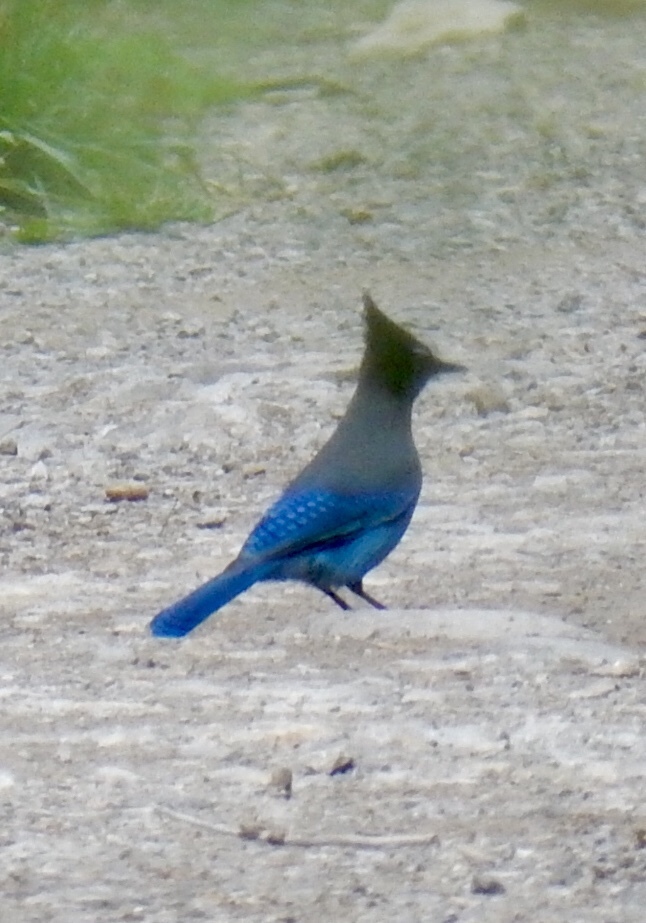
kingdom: Animalia
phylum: Chordata
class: Aves
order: Passeriformes
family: Corvidae
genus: Cyanocitta
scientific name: Cyanocitta stelleri
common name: Steller's jay
